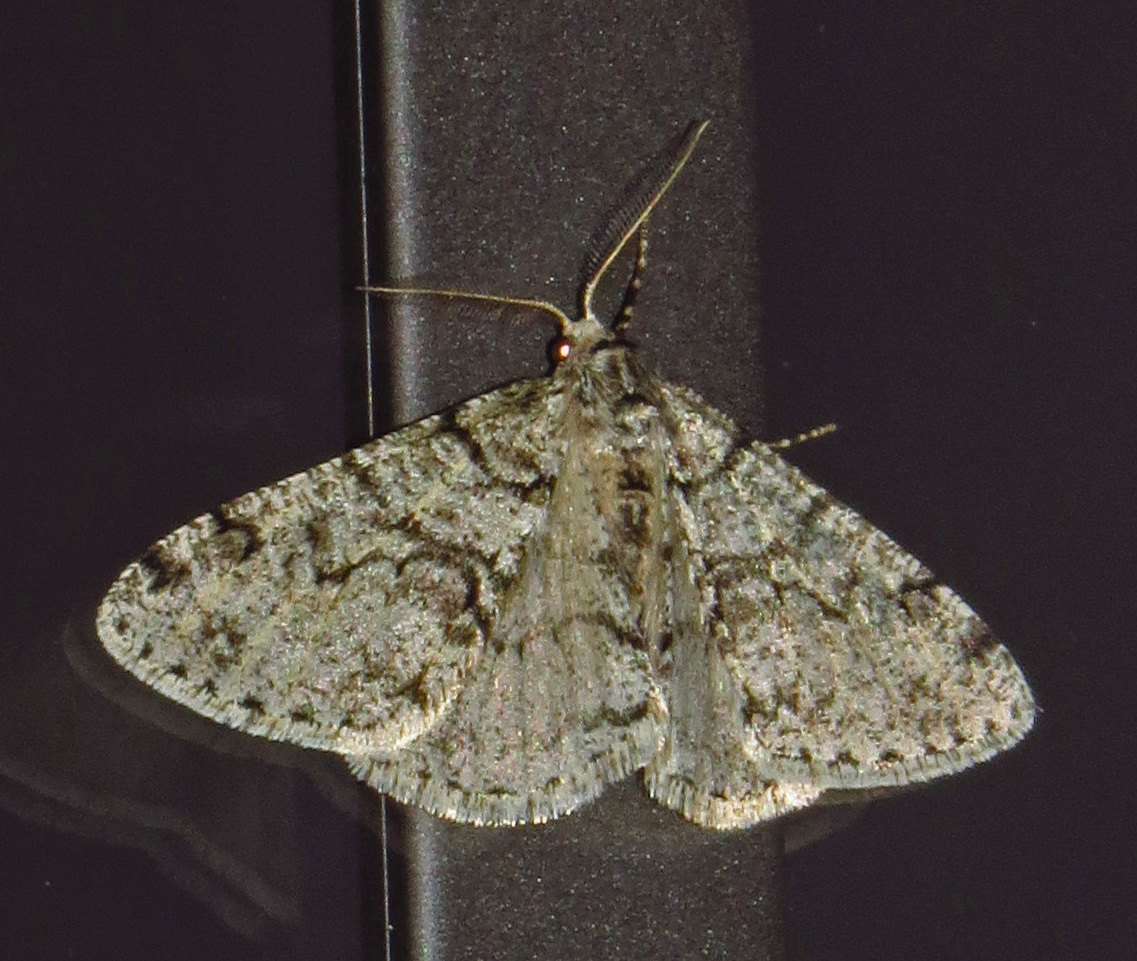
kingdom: Animalia
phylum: Arthropoda
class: Insecta
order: Lepidoptera
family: Geometridae
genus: Phigalia
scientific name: Phigalia strigataria
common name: Small phigalia
